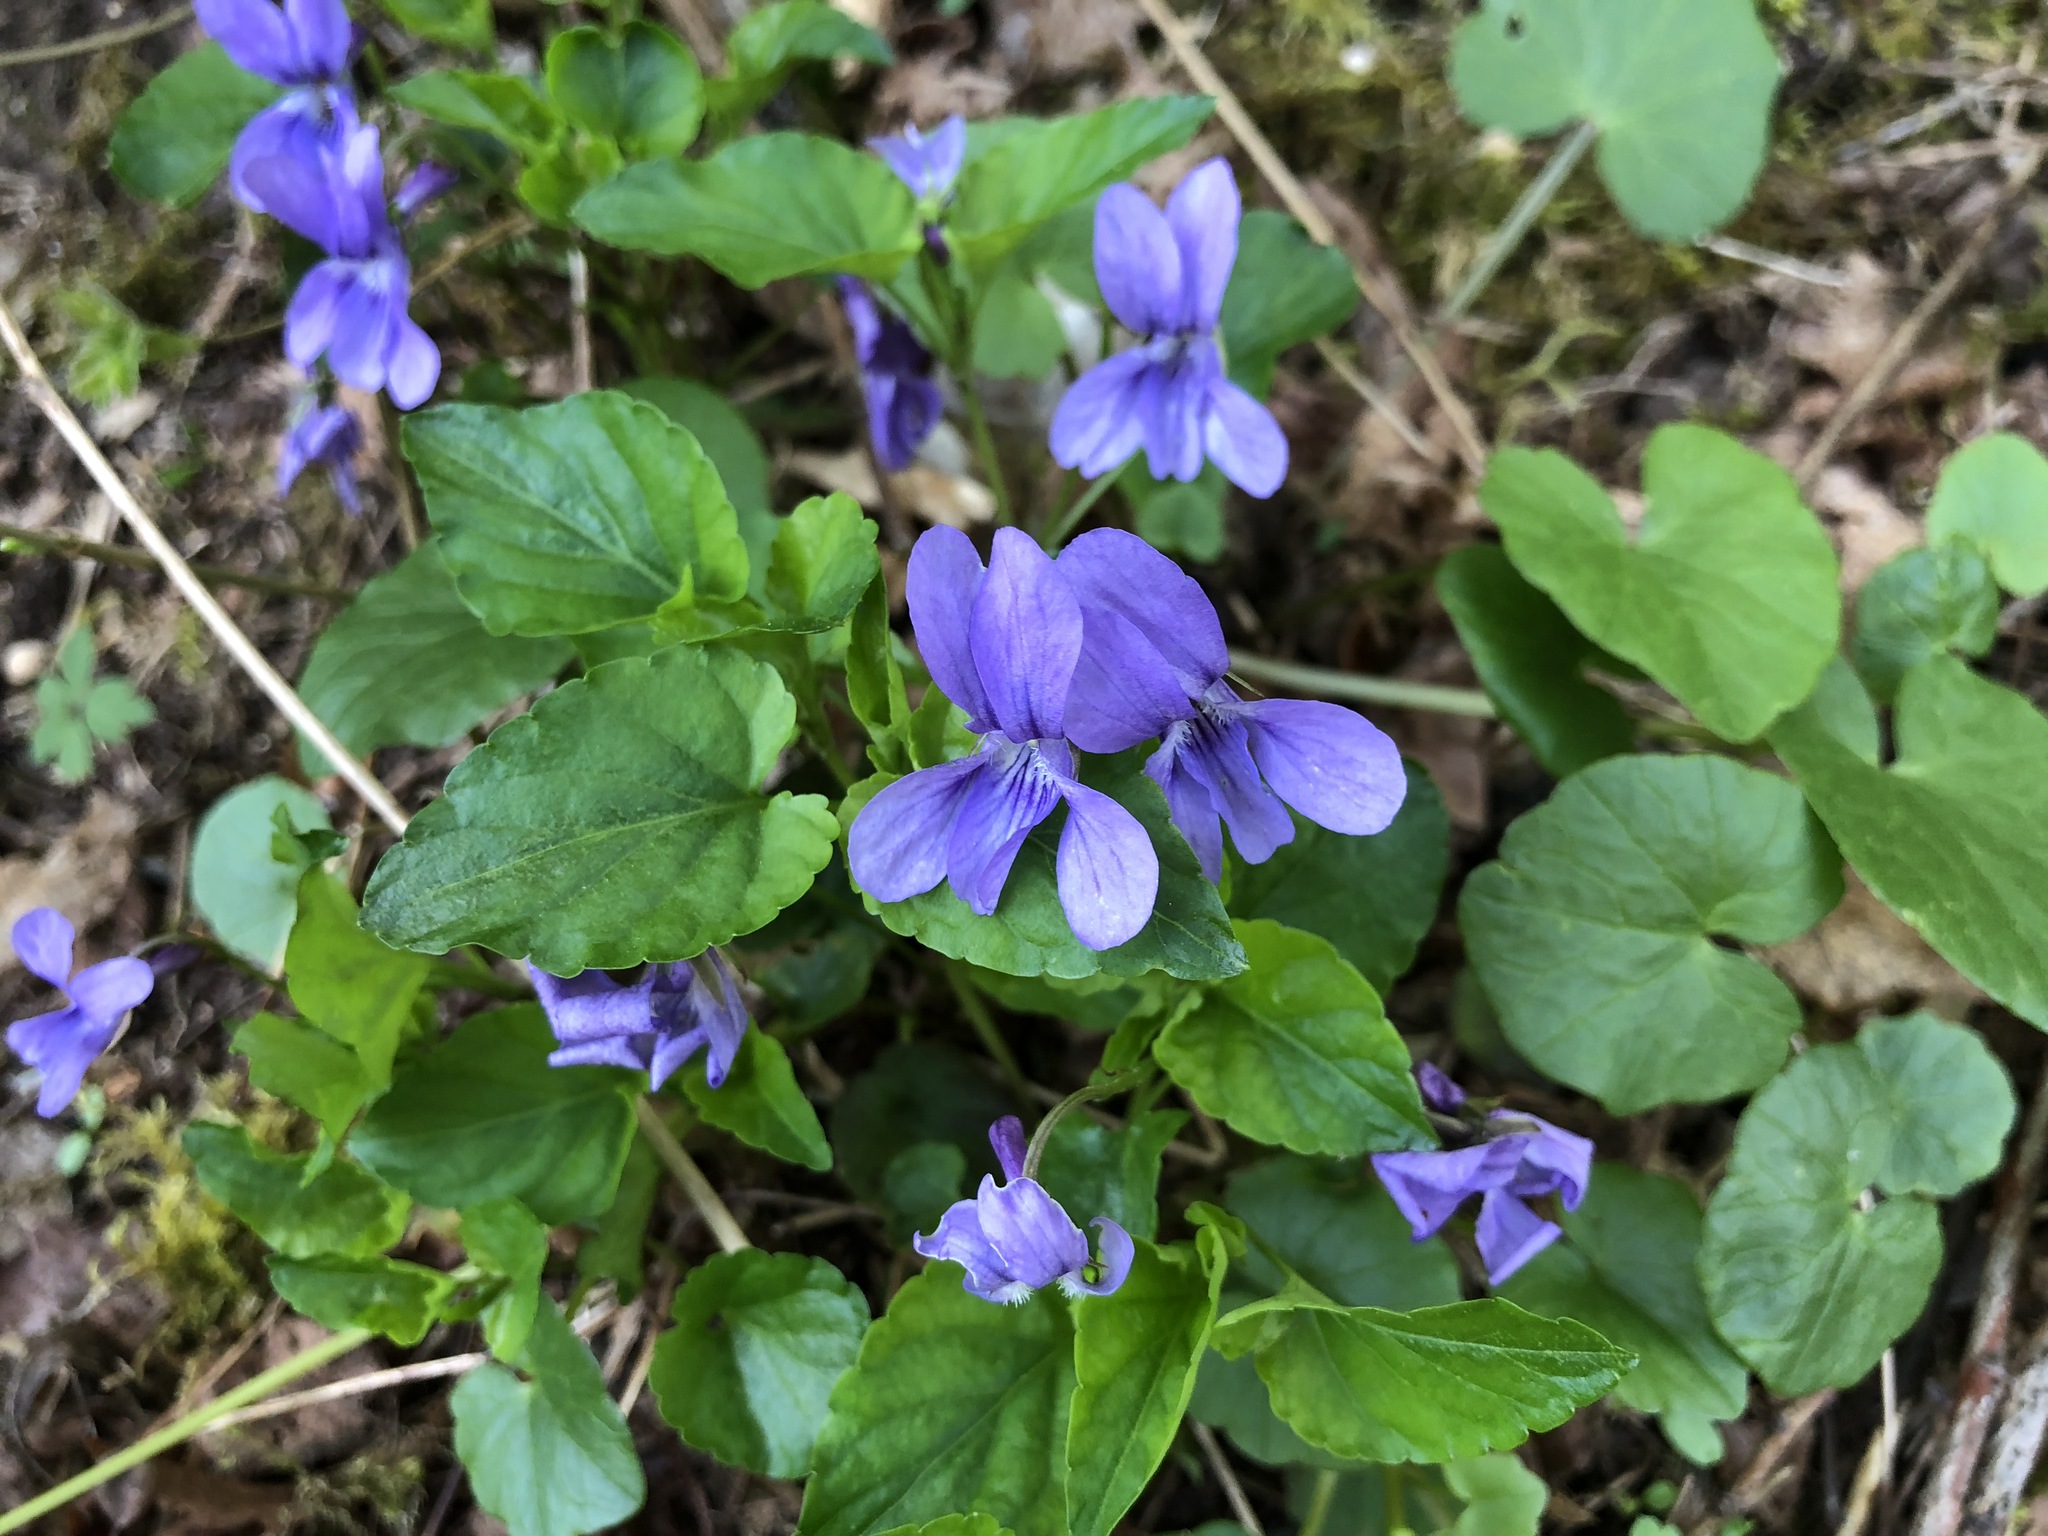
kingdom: Plantae
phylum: Tracheophyta
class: Magnoliopsida
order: Malpighiales
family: Violaceae
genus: Viola
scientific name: Viola reichenbachiana
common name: Early dog-violet
